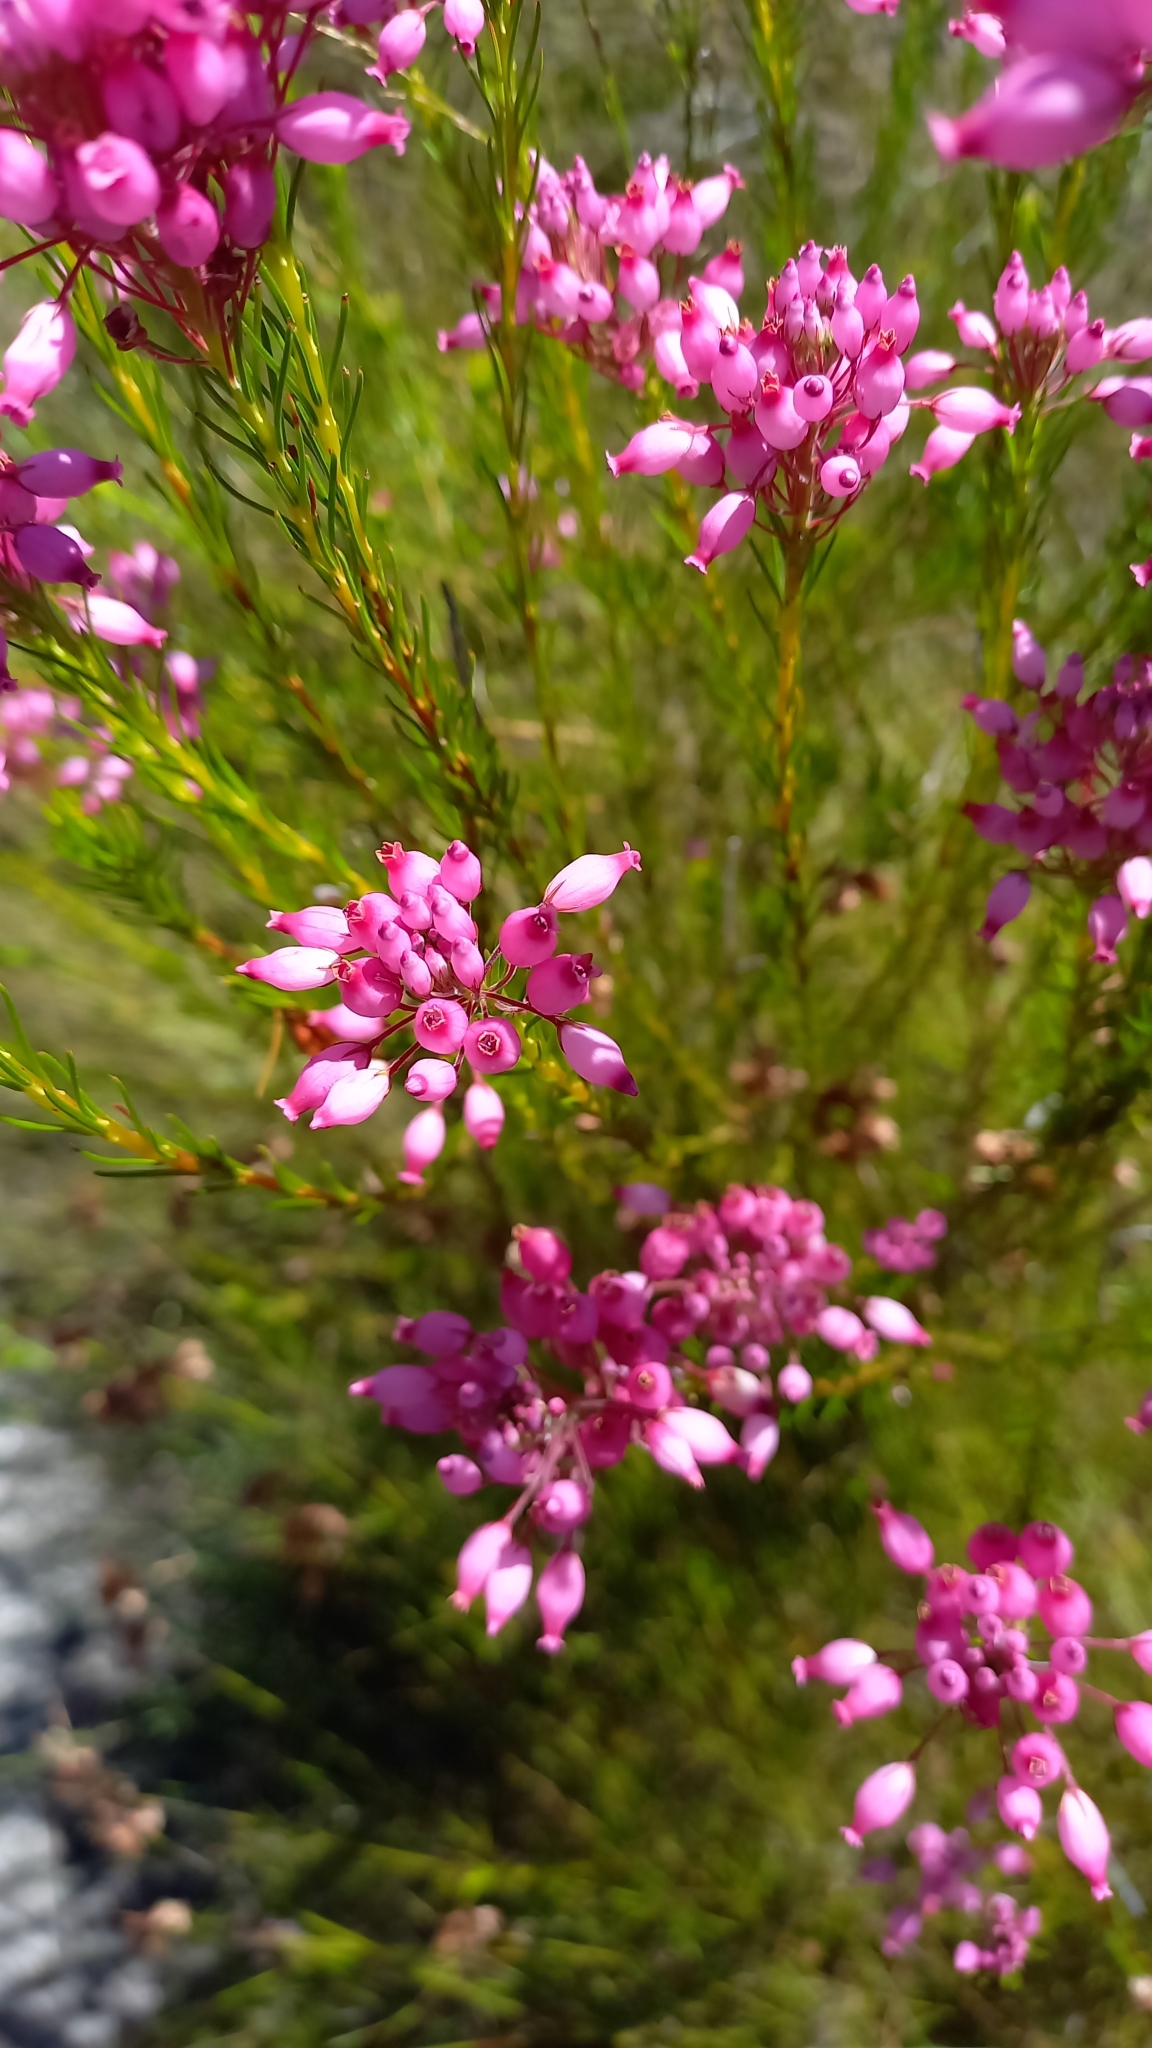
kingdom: Plantae
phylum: Tracheophyta
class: Magnoliopsida
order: Ericales
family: Ericaceae
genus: Erica
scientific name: Erica inflata
